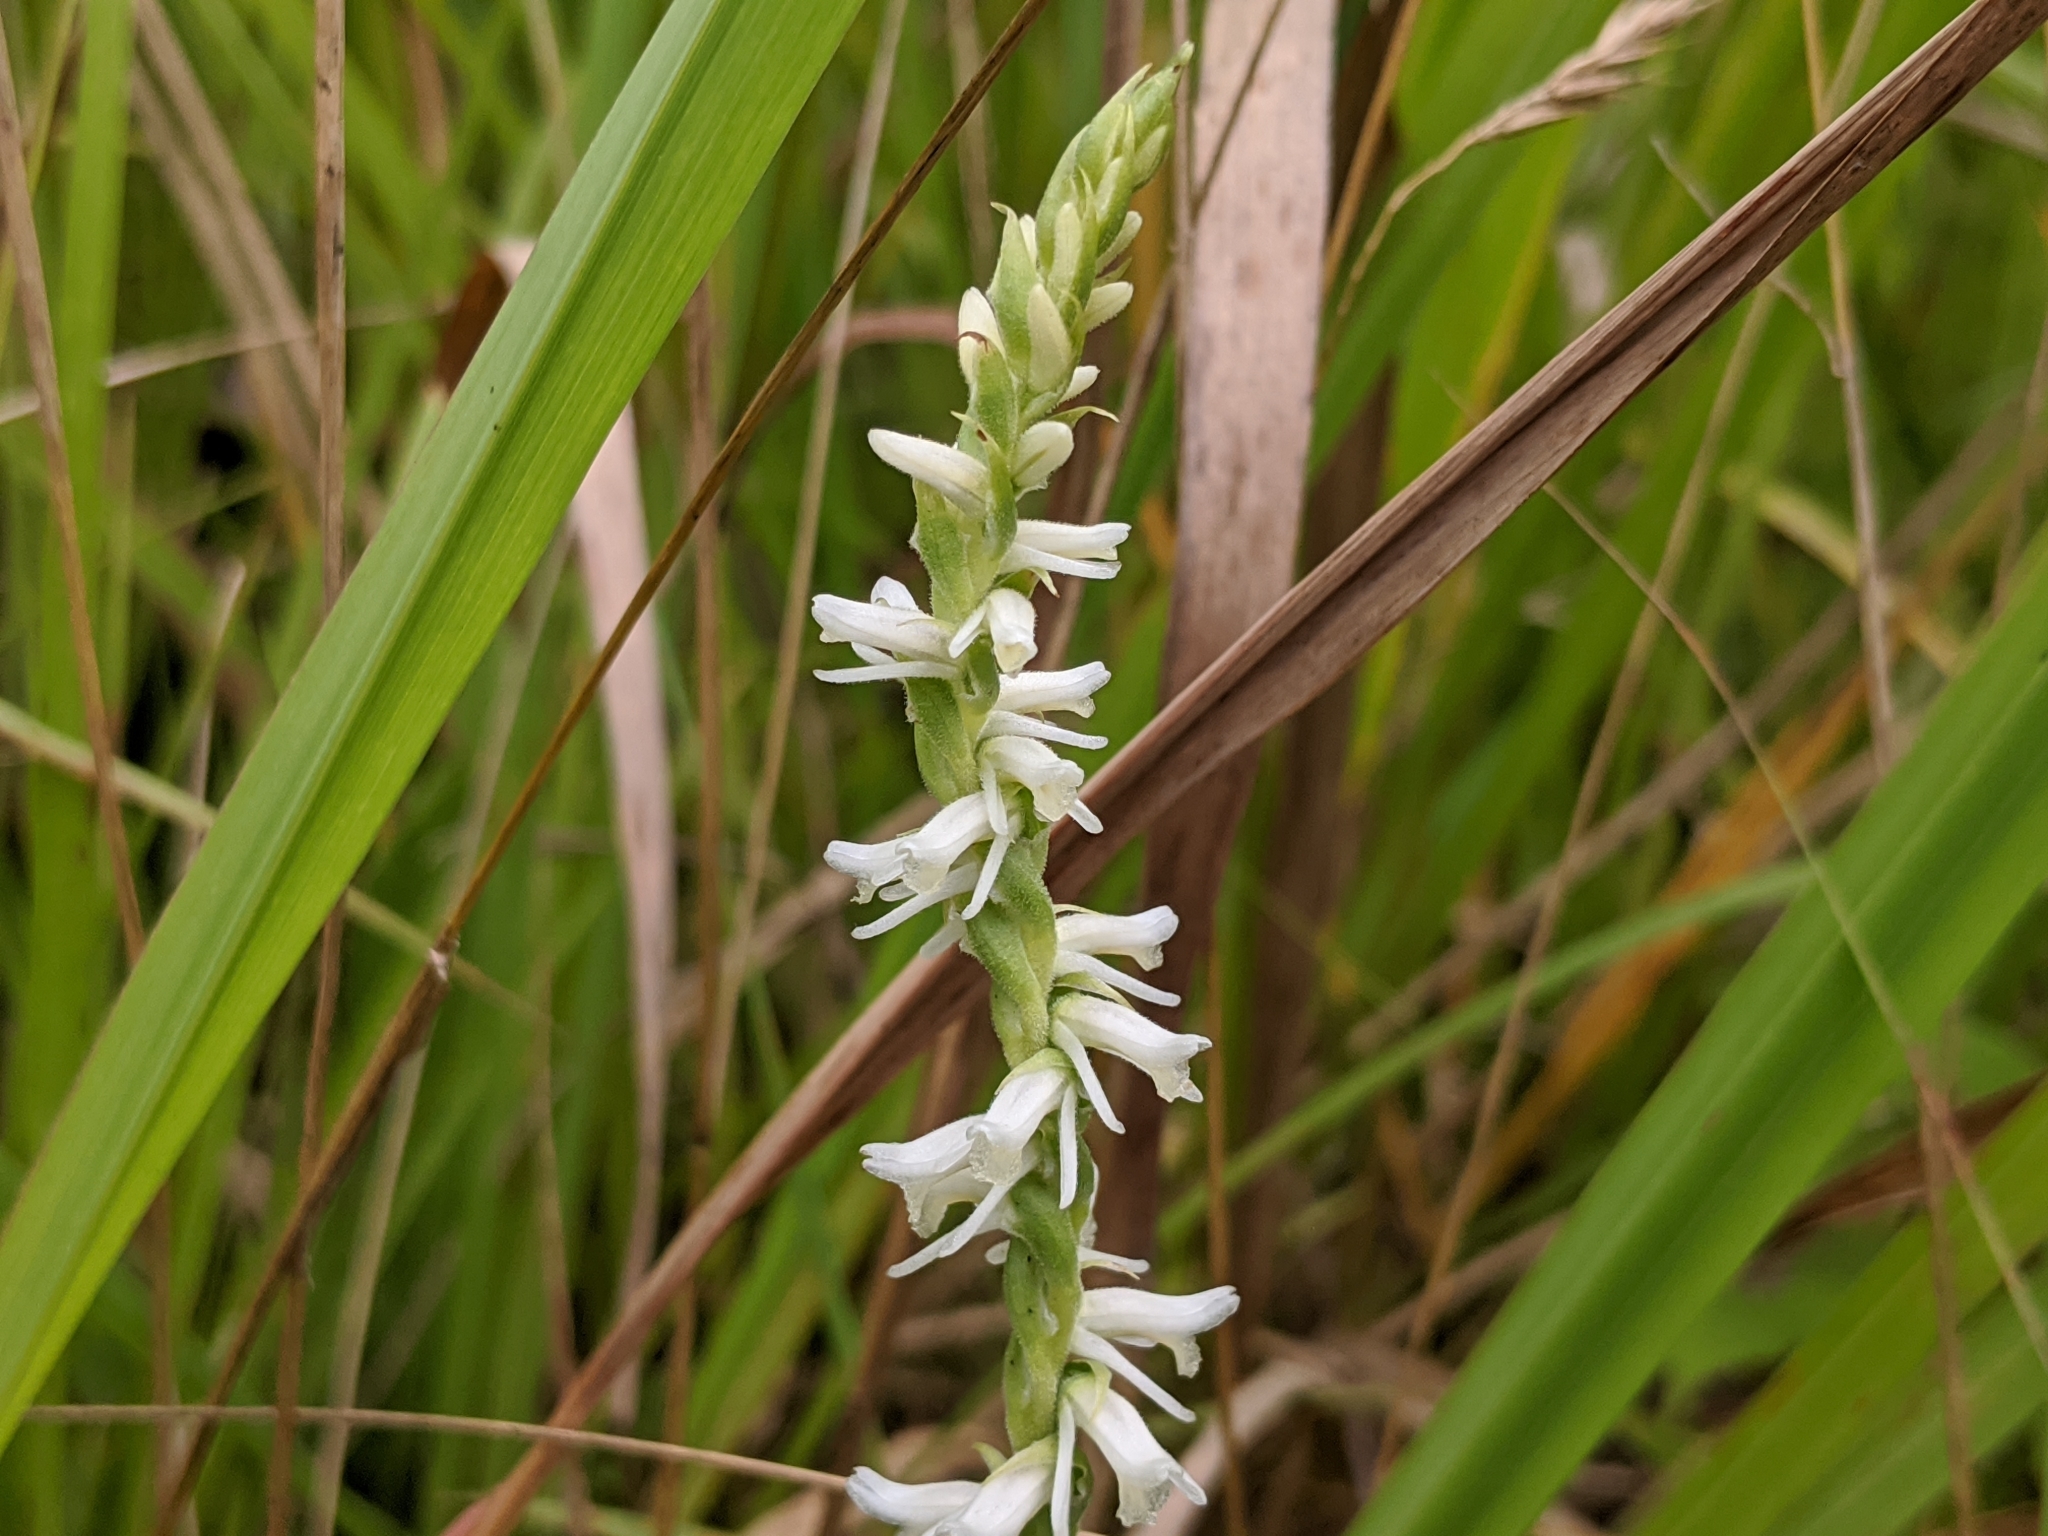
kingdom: Plantae
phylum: Tracheophyta
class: Liliopsida
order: Asparagales
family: Orchidaceae
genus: Spiranthes
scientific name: Spiranthes vernalis
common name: Spring ladies'-tresses
